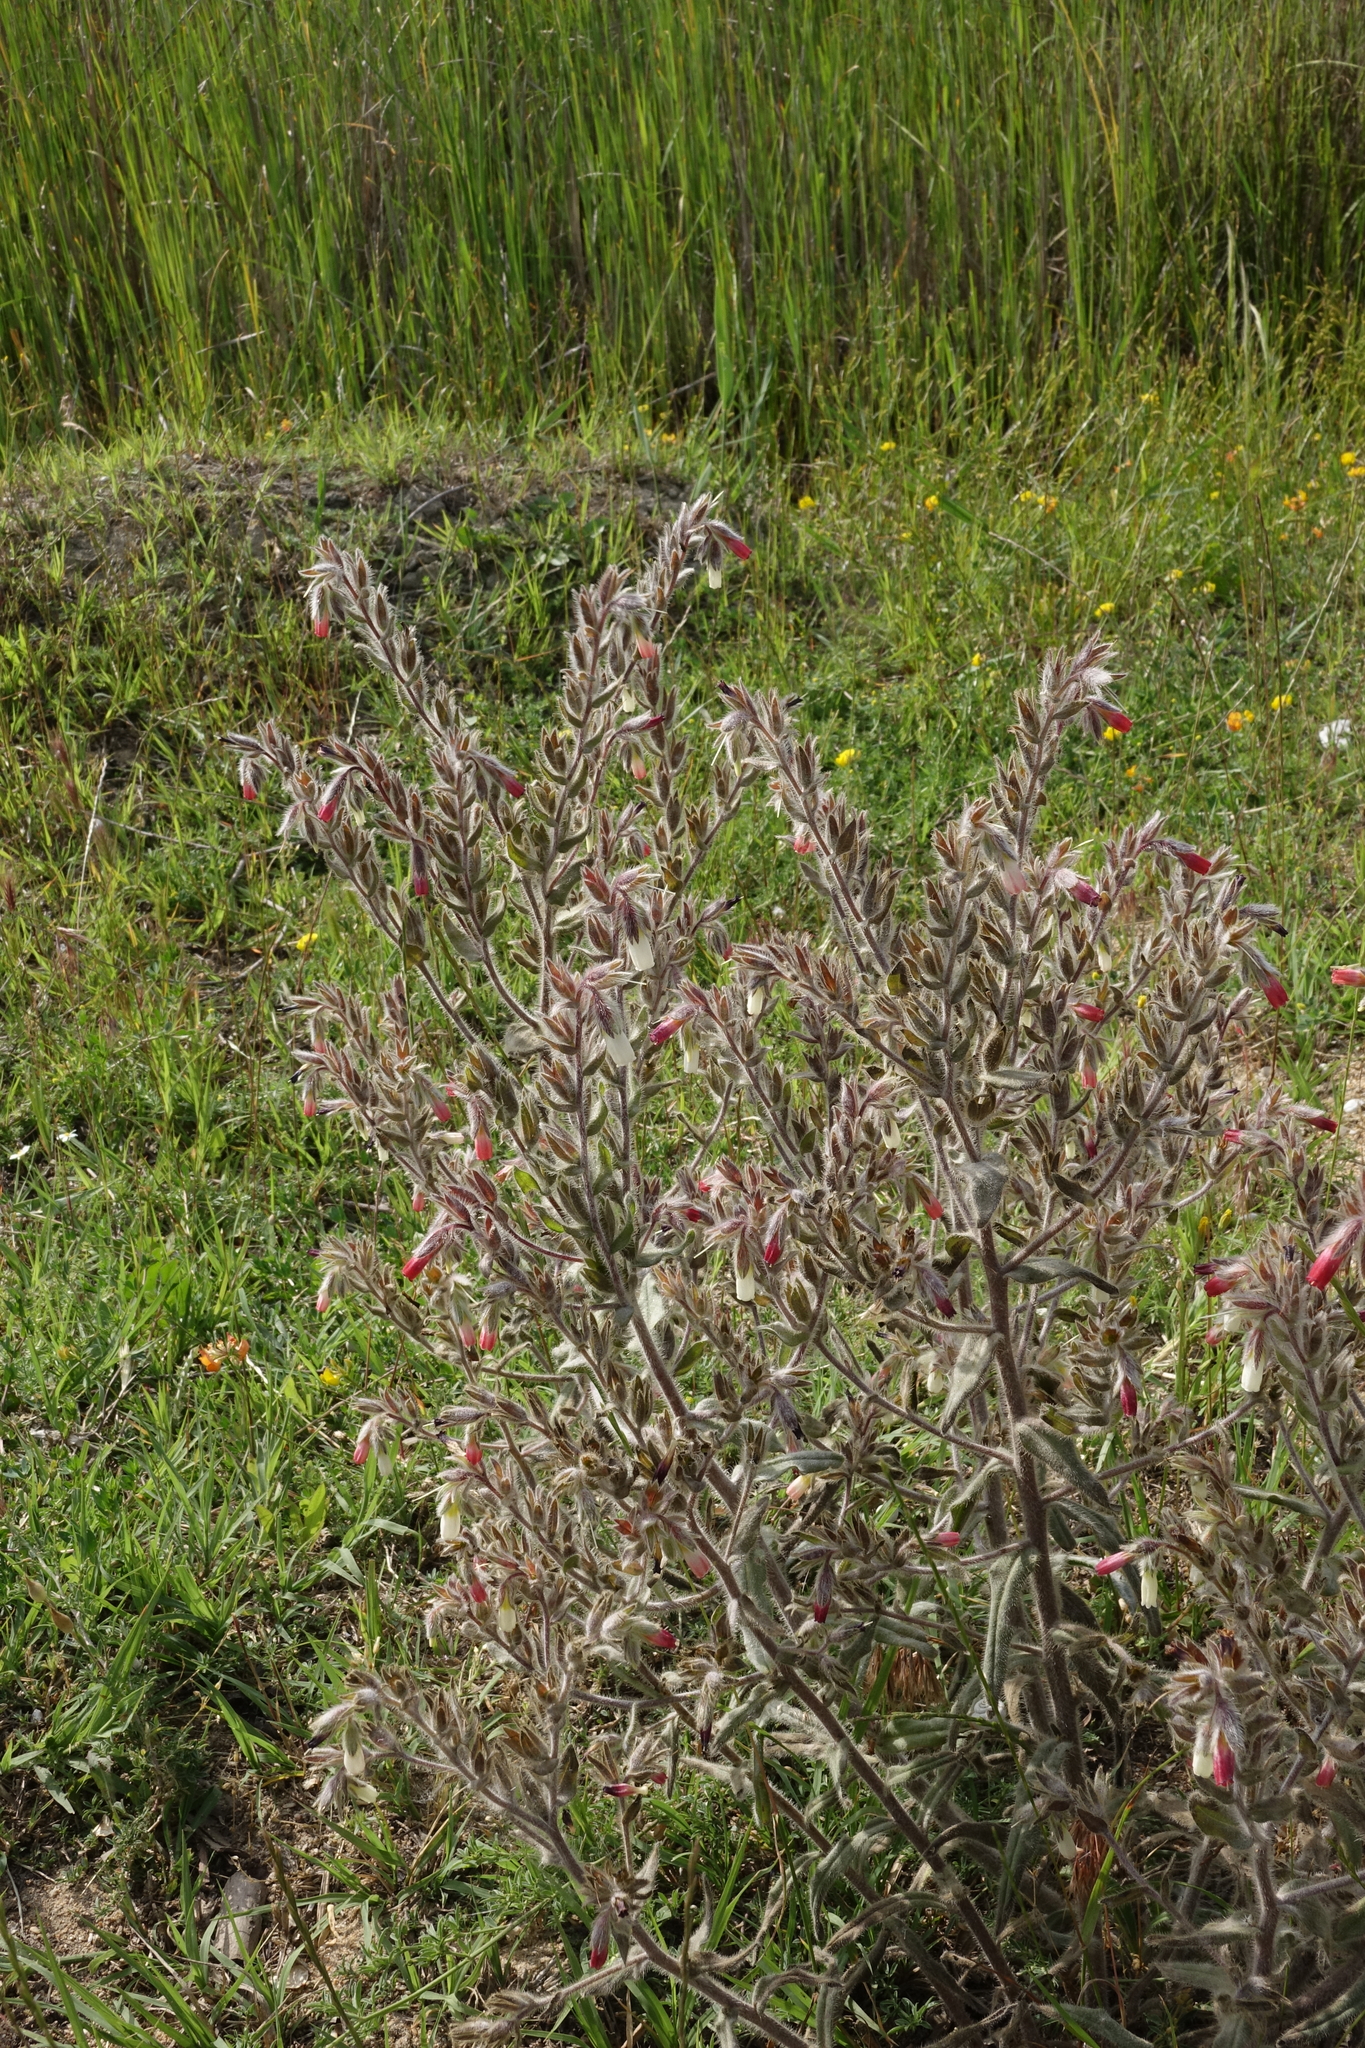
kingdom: Plantae
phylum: Tracheophyta
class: Magnoliopsida
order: Boraginales
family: Boraginaceae
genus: Pontechium
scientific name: Pontechium maculatum
